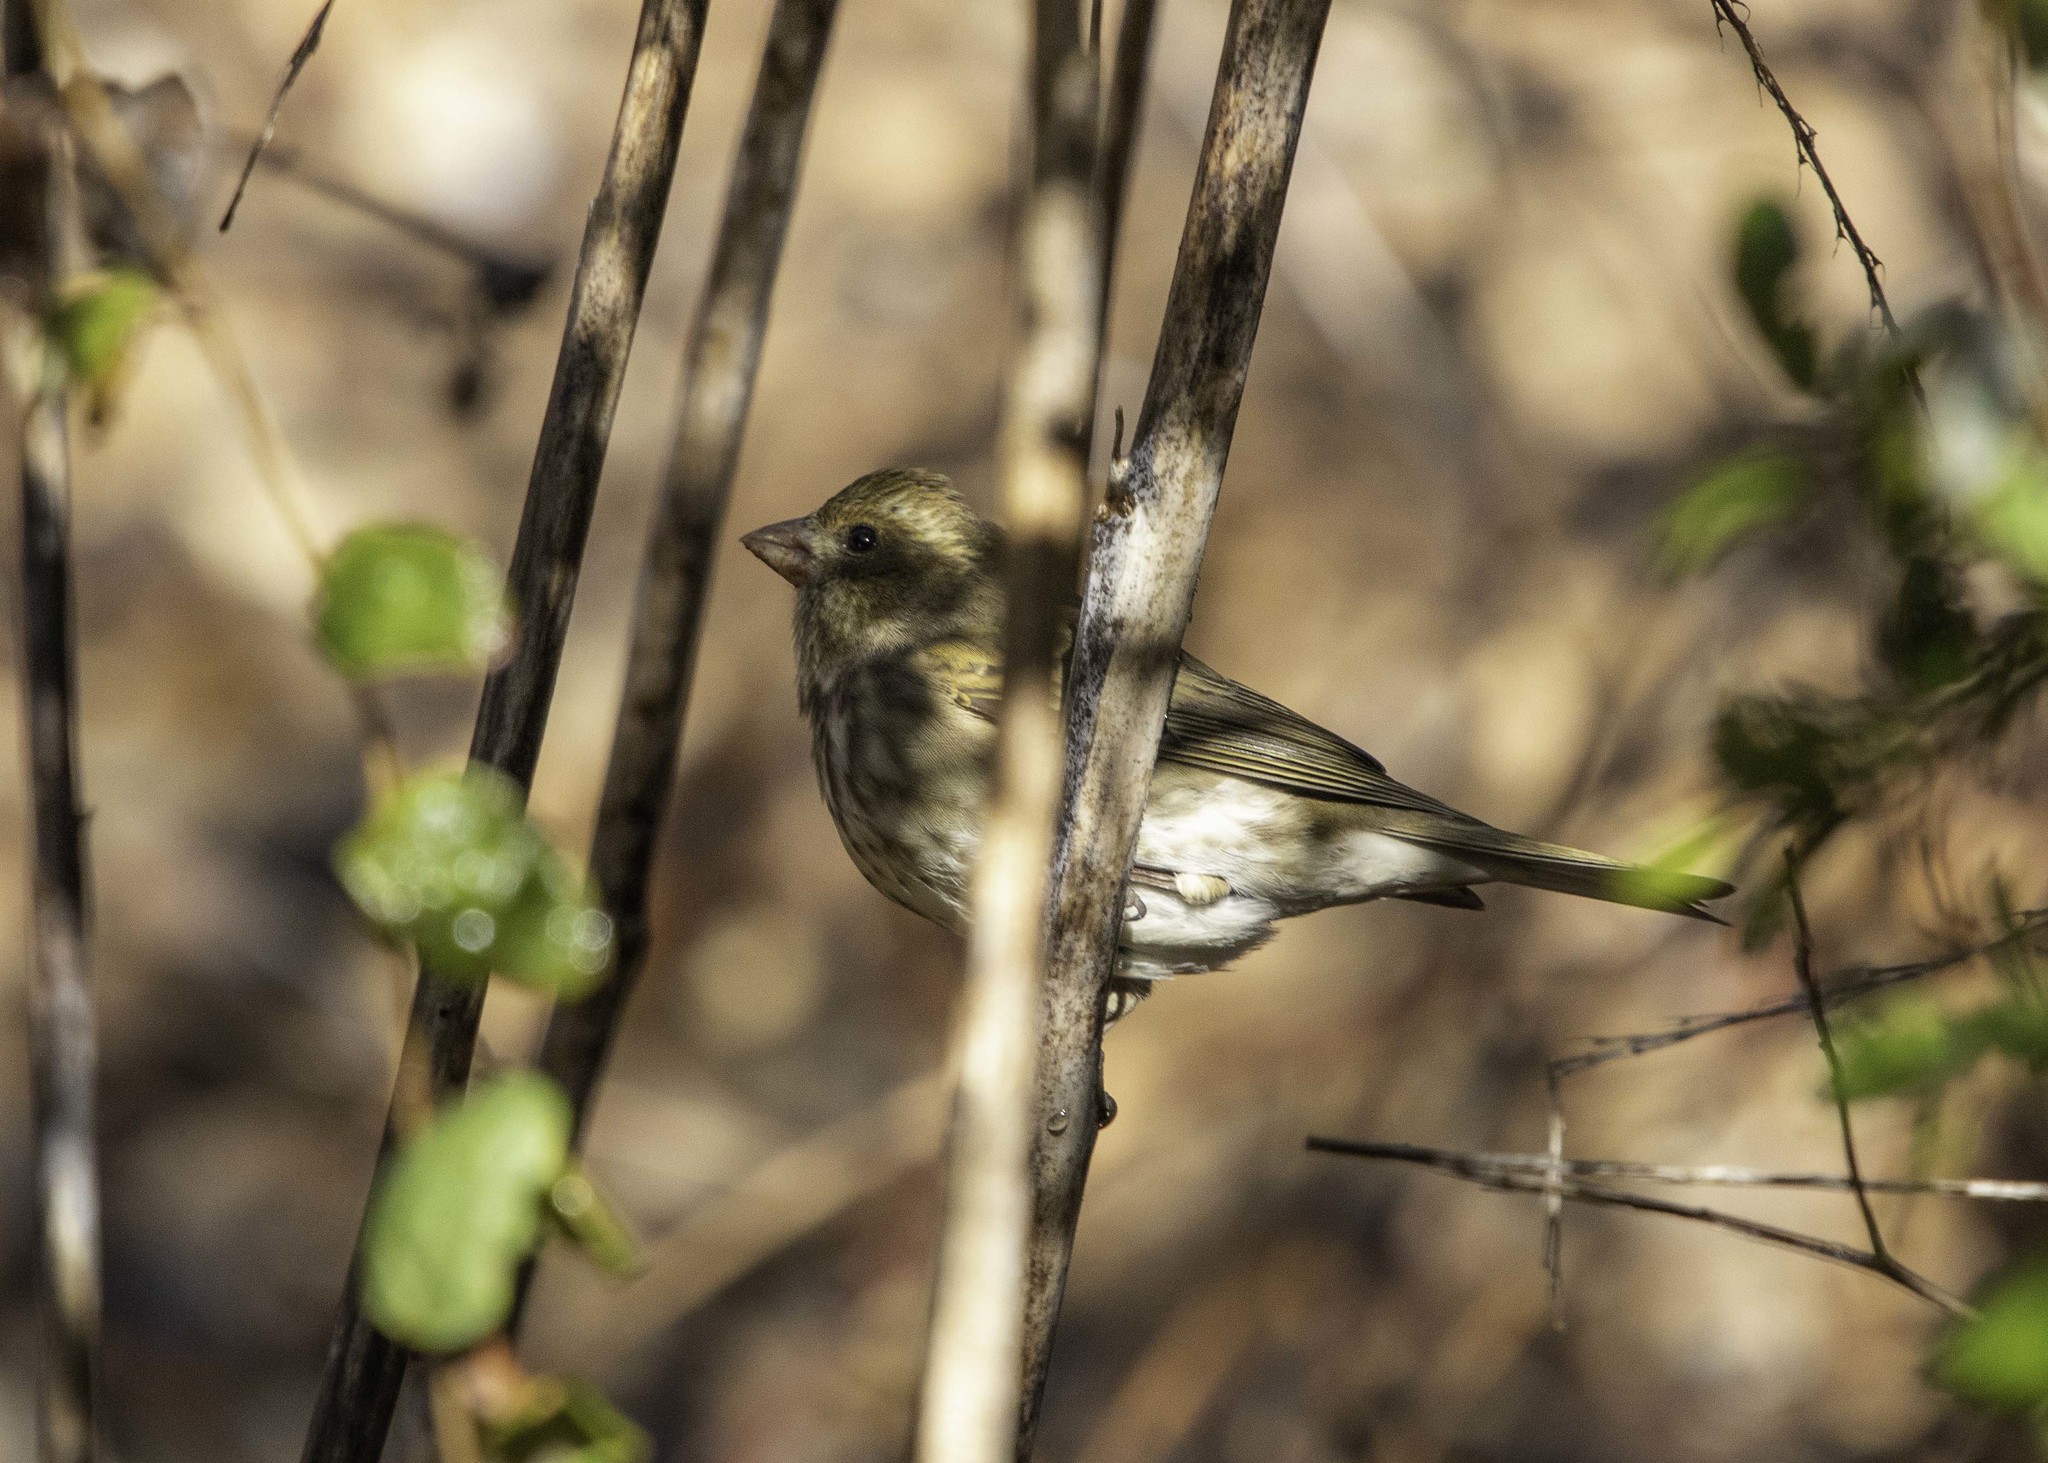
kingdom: Animalia
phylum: Chordata
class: Aves
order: Passeriformes
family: Fringillidae
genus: Haemorhous
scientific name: Haemorhous purpureus
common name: Purple finch
